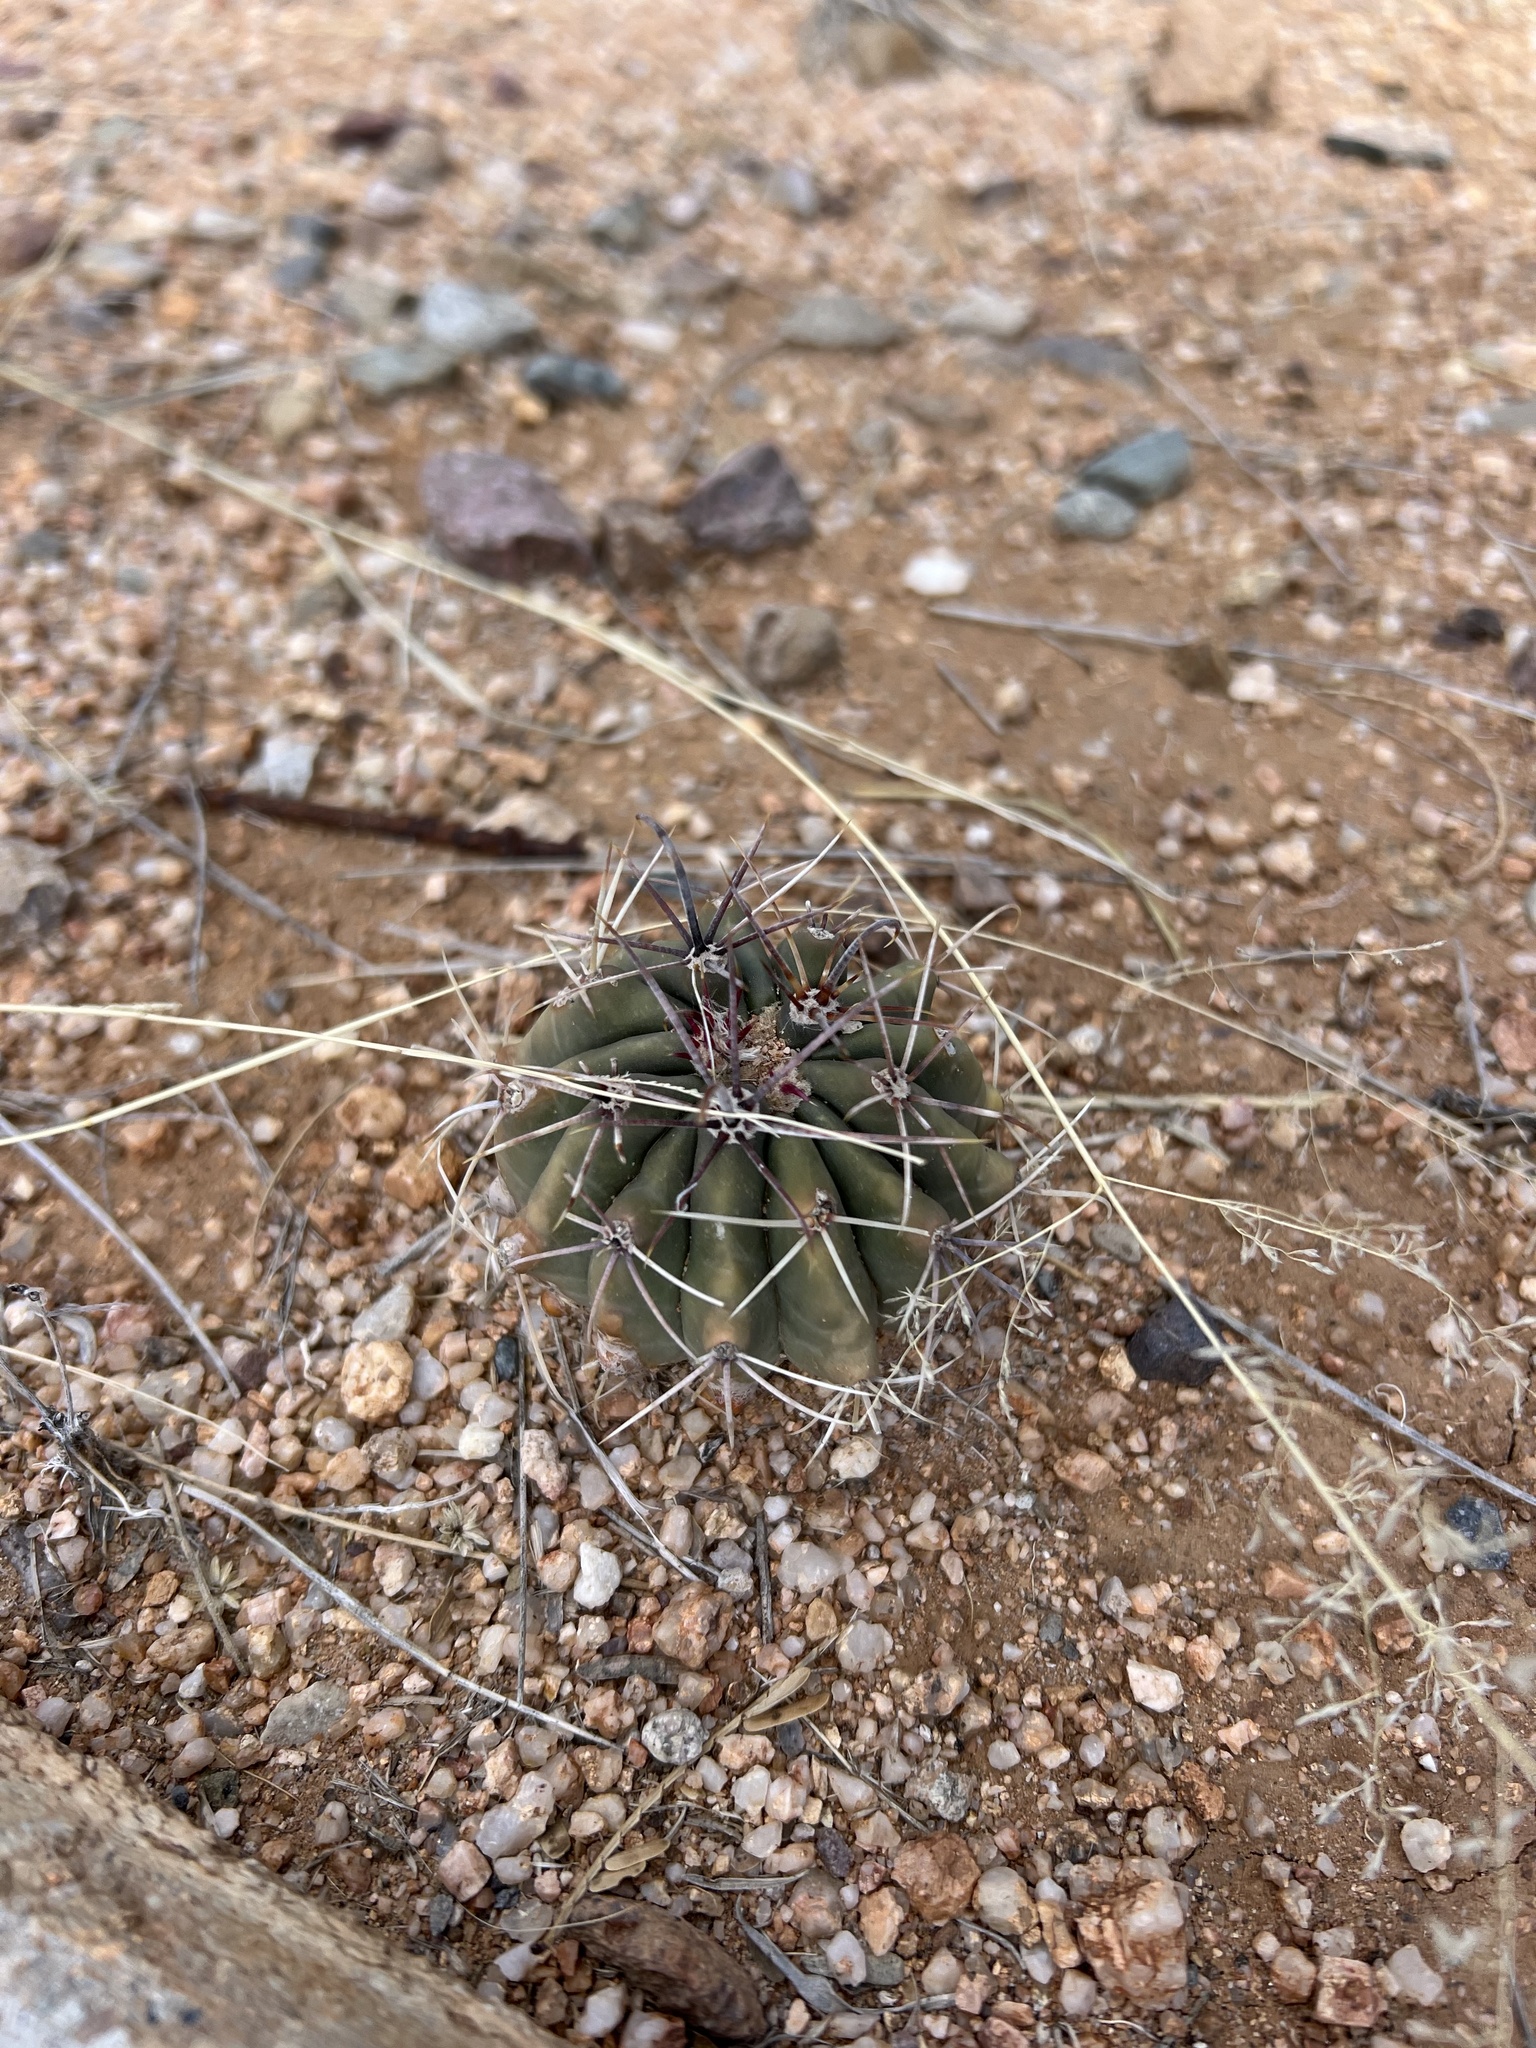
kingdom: Plantae
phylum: Tracheophyta
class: Magnoliopsida
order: Caryophyllales
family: Cactaceae
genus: Ferocactus
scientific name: Ferocactus wislizeni
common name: Candy barrel cactus
